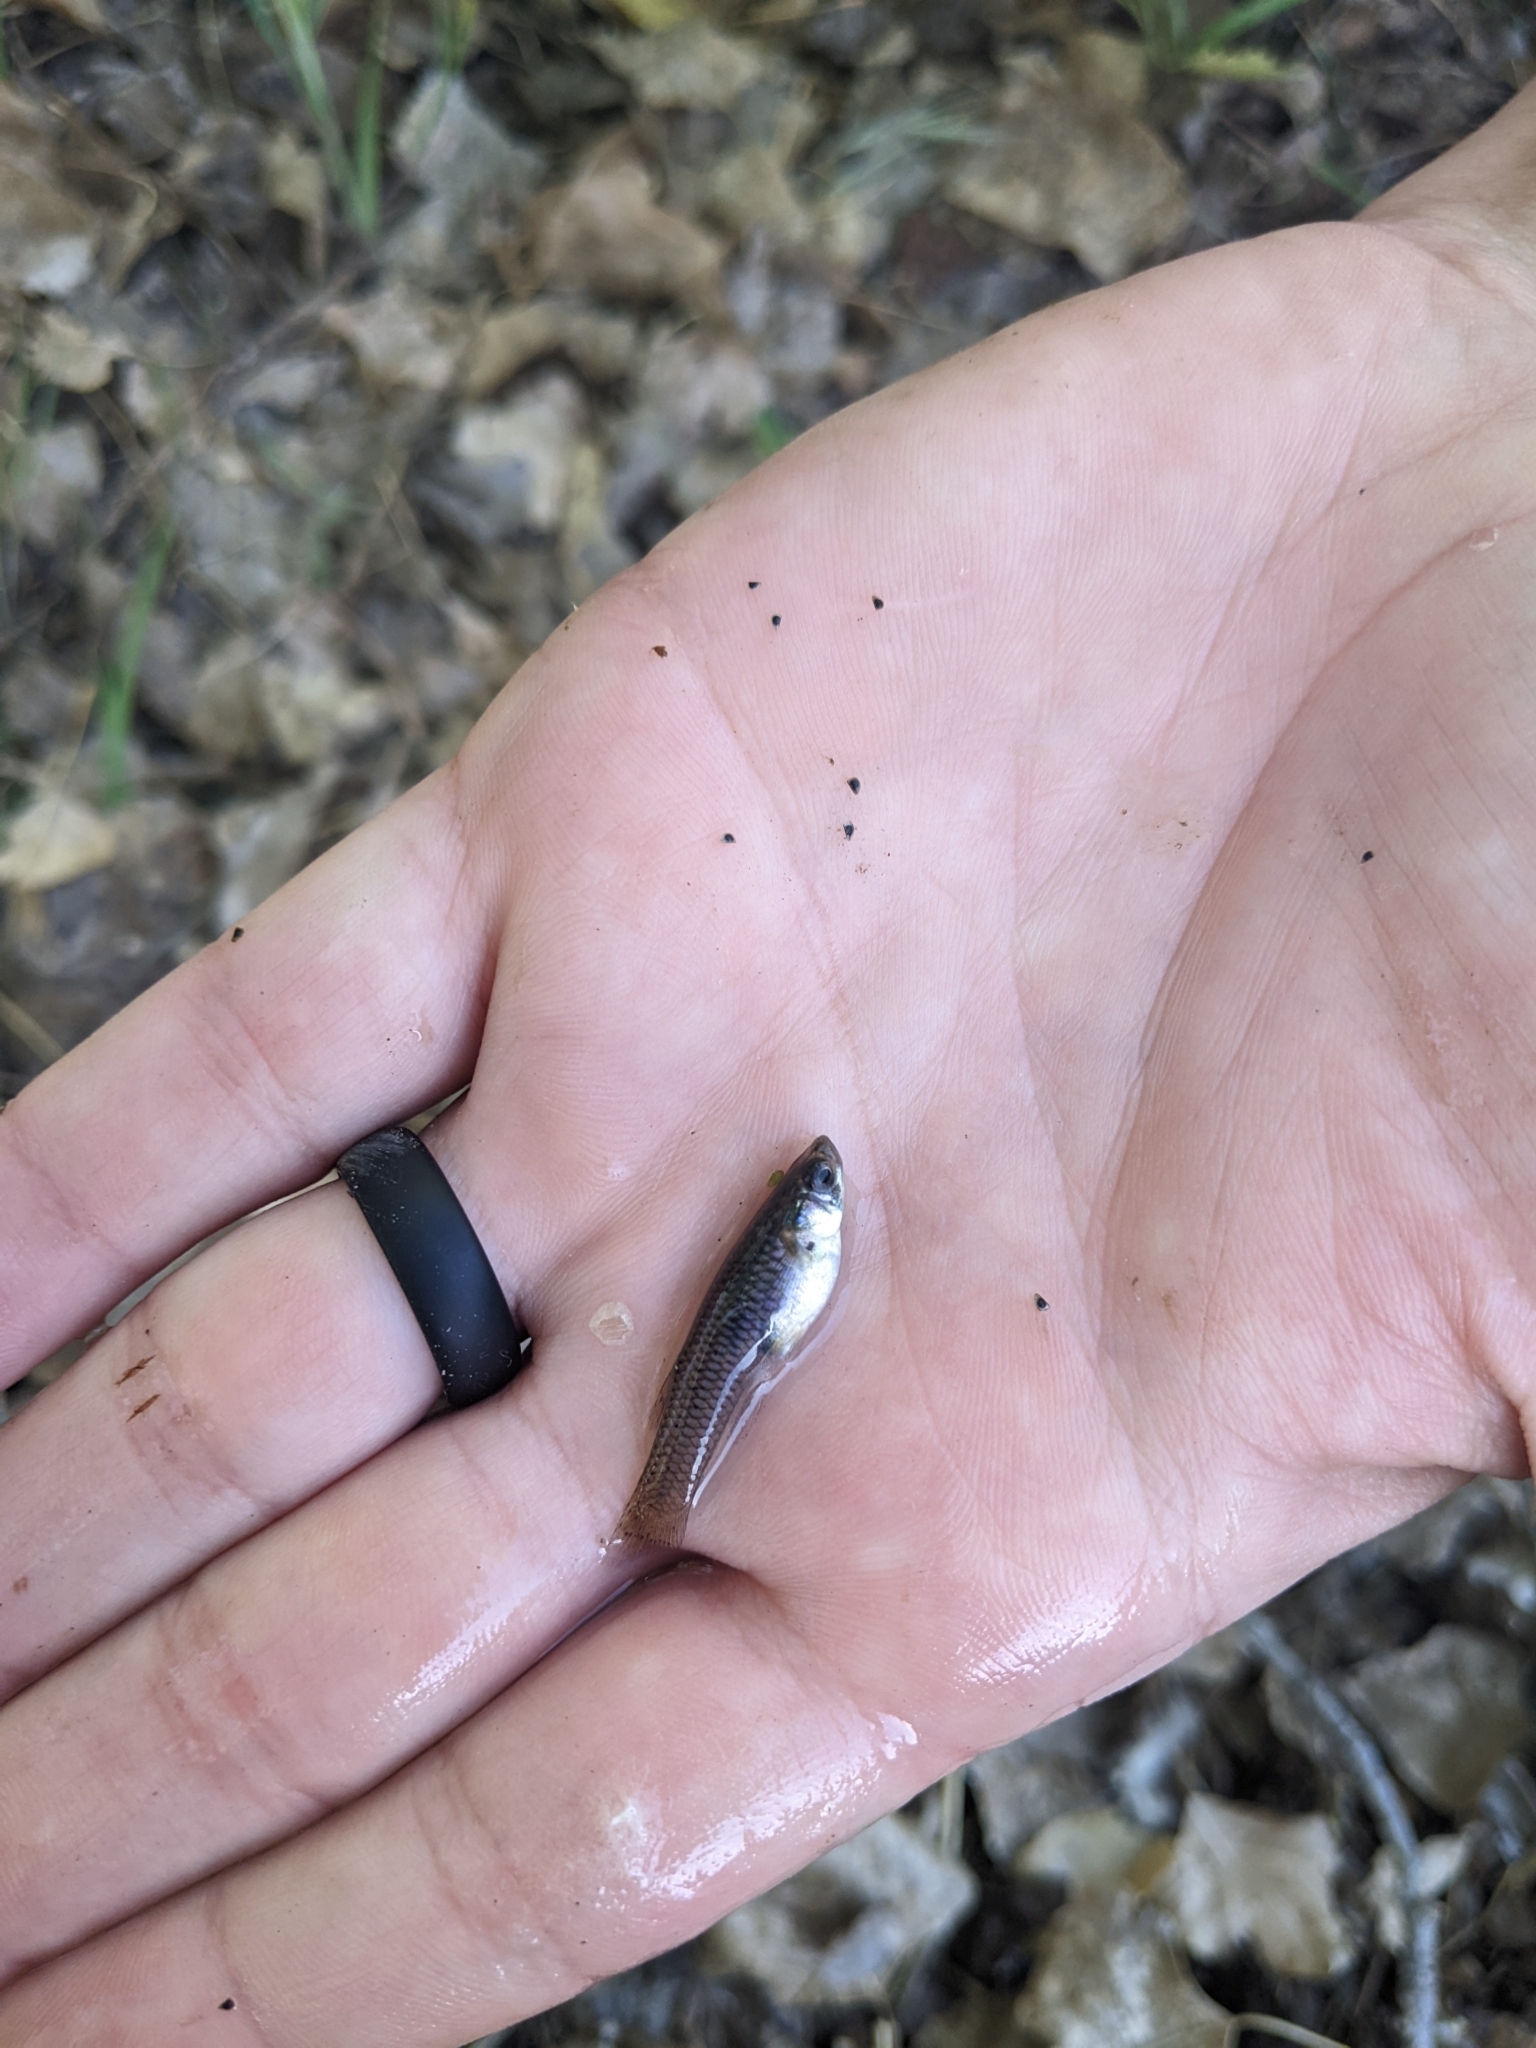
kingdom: Animalia
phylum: Chordata
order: Cyprinodontiformes
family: Poeciliidae
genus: Gambusia
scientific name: Gambusia affinis
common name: Mosquitofish
